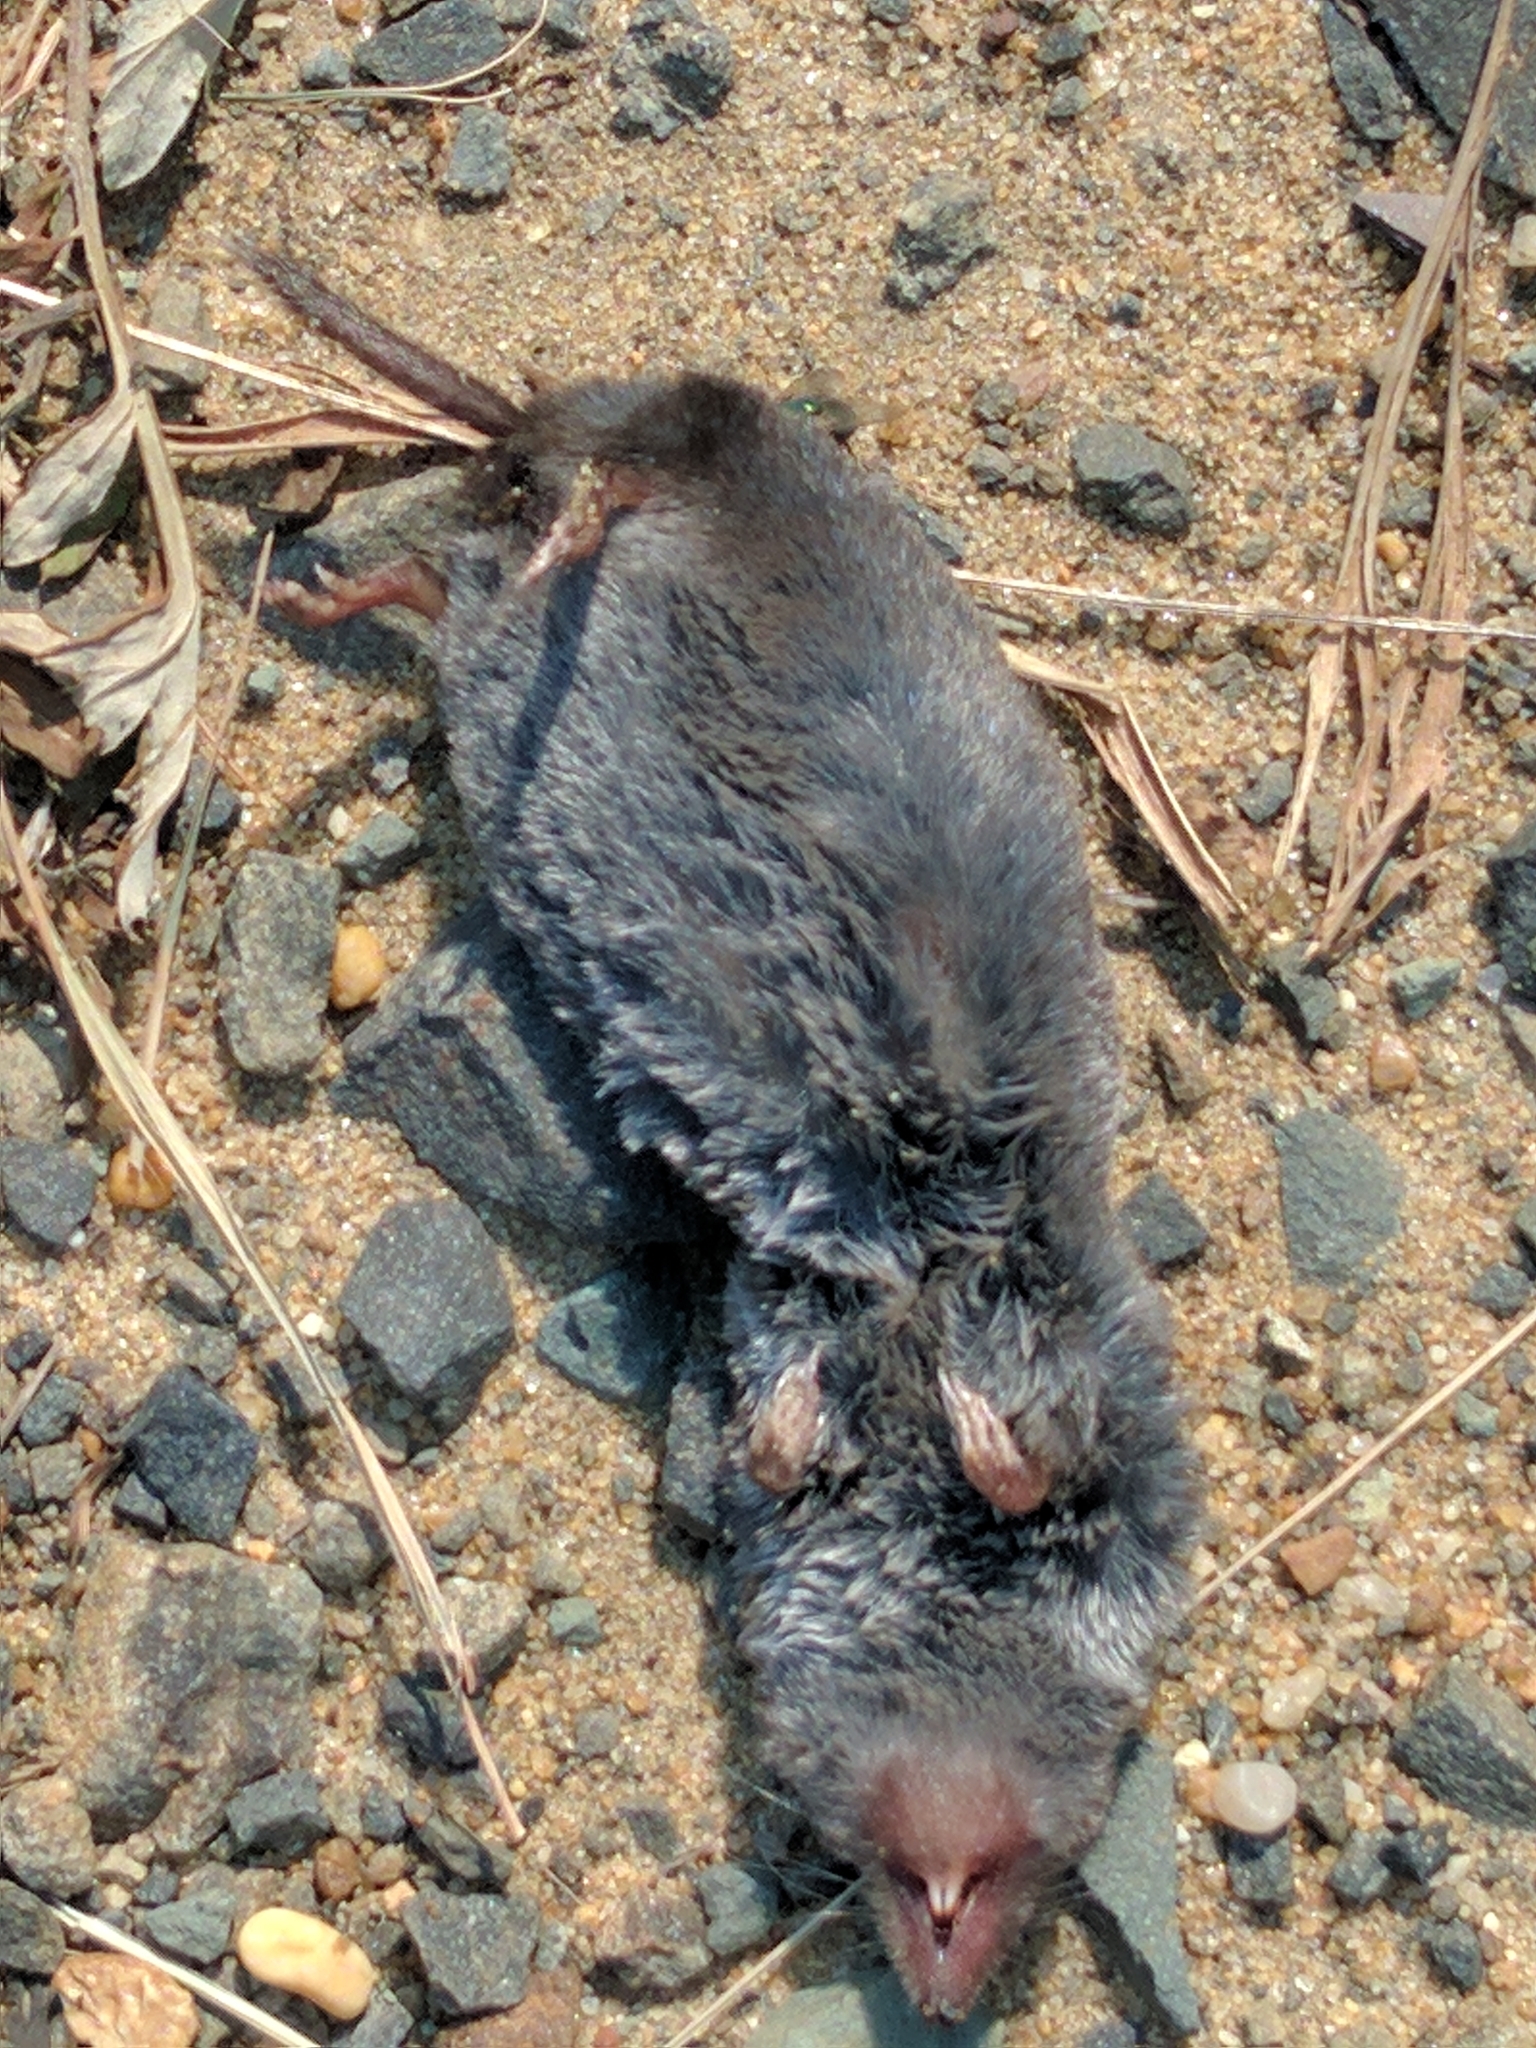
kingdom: Animalia
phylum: Chordata
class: Mammalia
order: Soricomorpha
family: Soricidae
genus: Blarina
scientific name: Blarina brevicauda
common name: Northern short-tailed shrew
